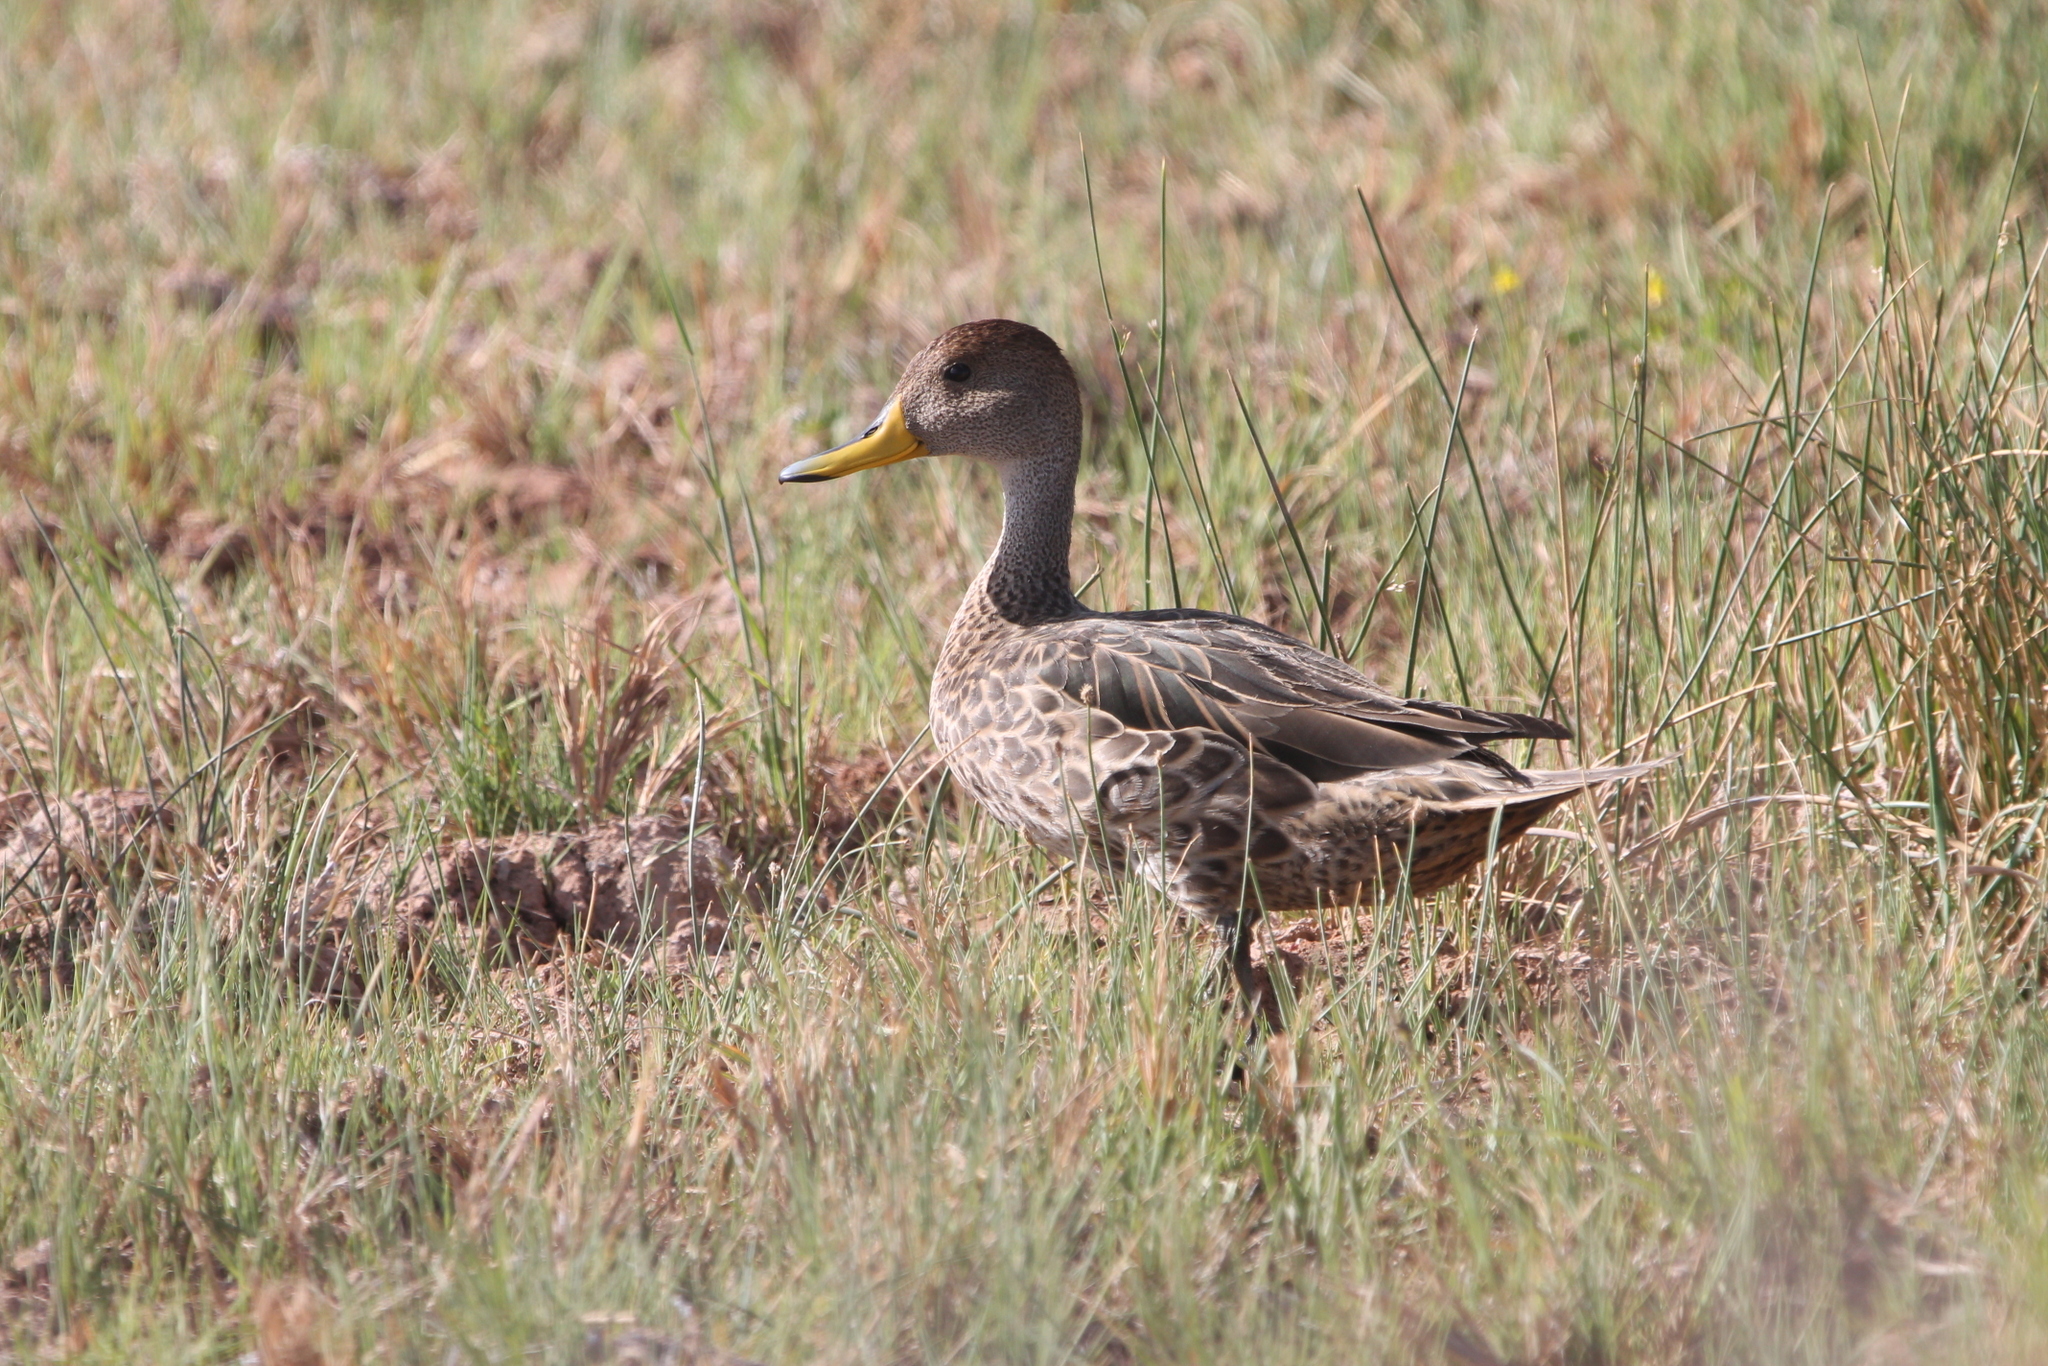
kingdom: Animalia
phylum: Chordata
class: Aves
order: Anseriformes
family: Anatidae
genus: Anas
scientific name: Anas georgica
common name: Yellow-billed pintail
